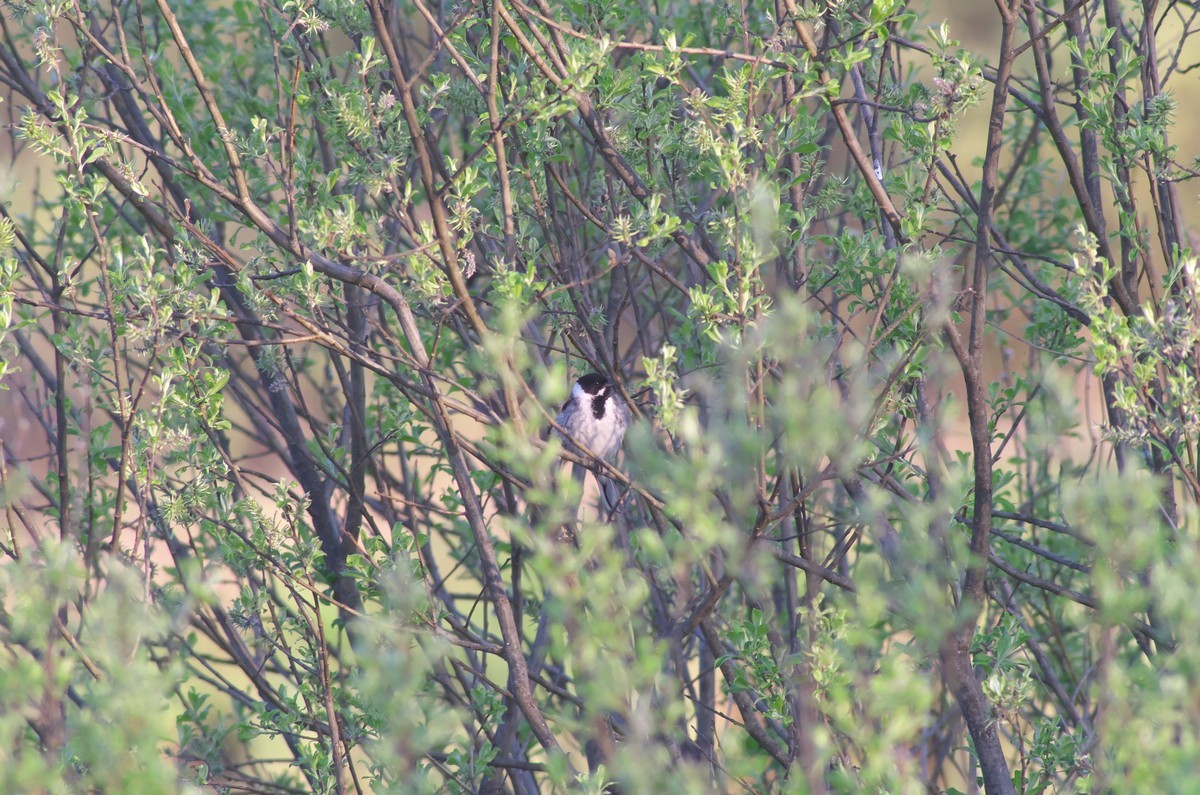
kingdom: Animalia
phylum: Chordata
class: Aves
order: Passeriformes
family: Emberizidae
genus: Emberiza
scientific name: Emberiza schoeniclus
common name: Reed bunting
